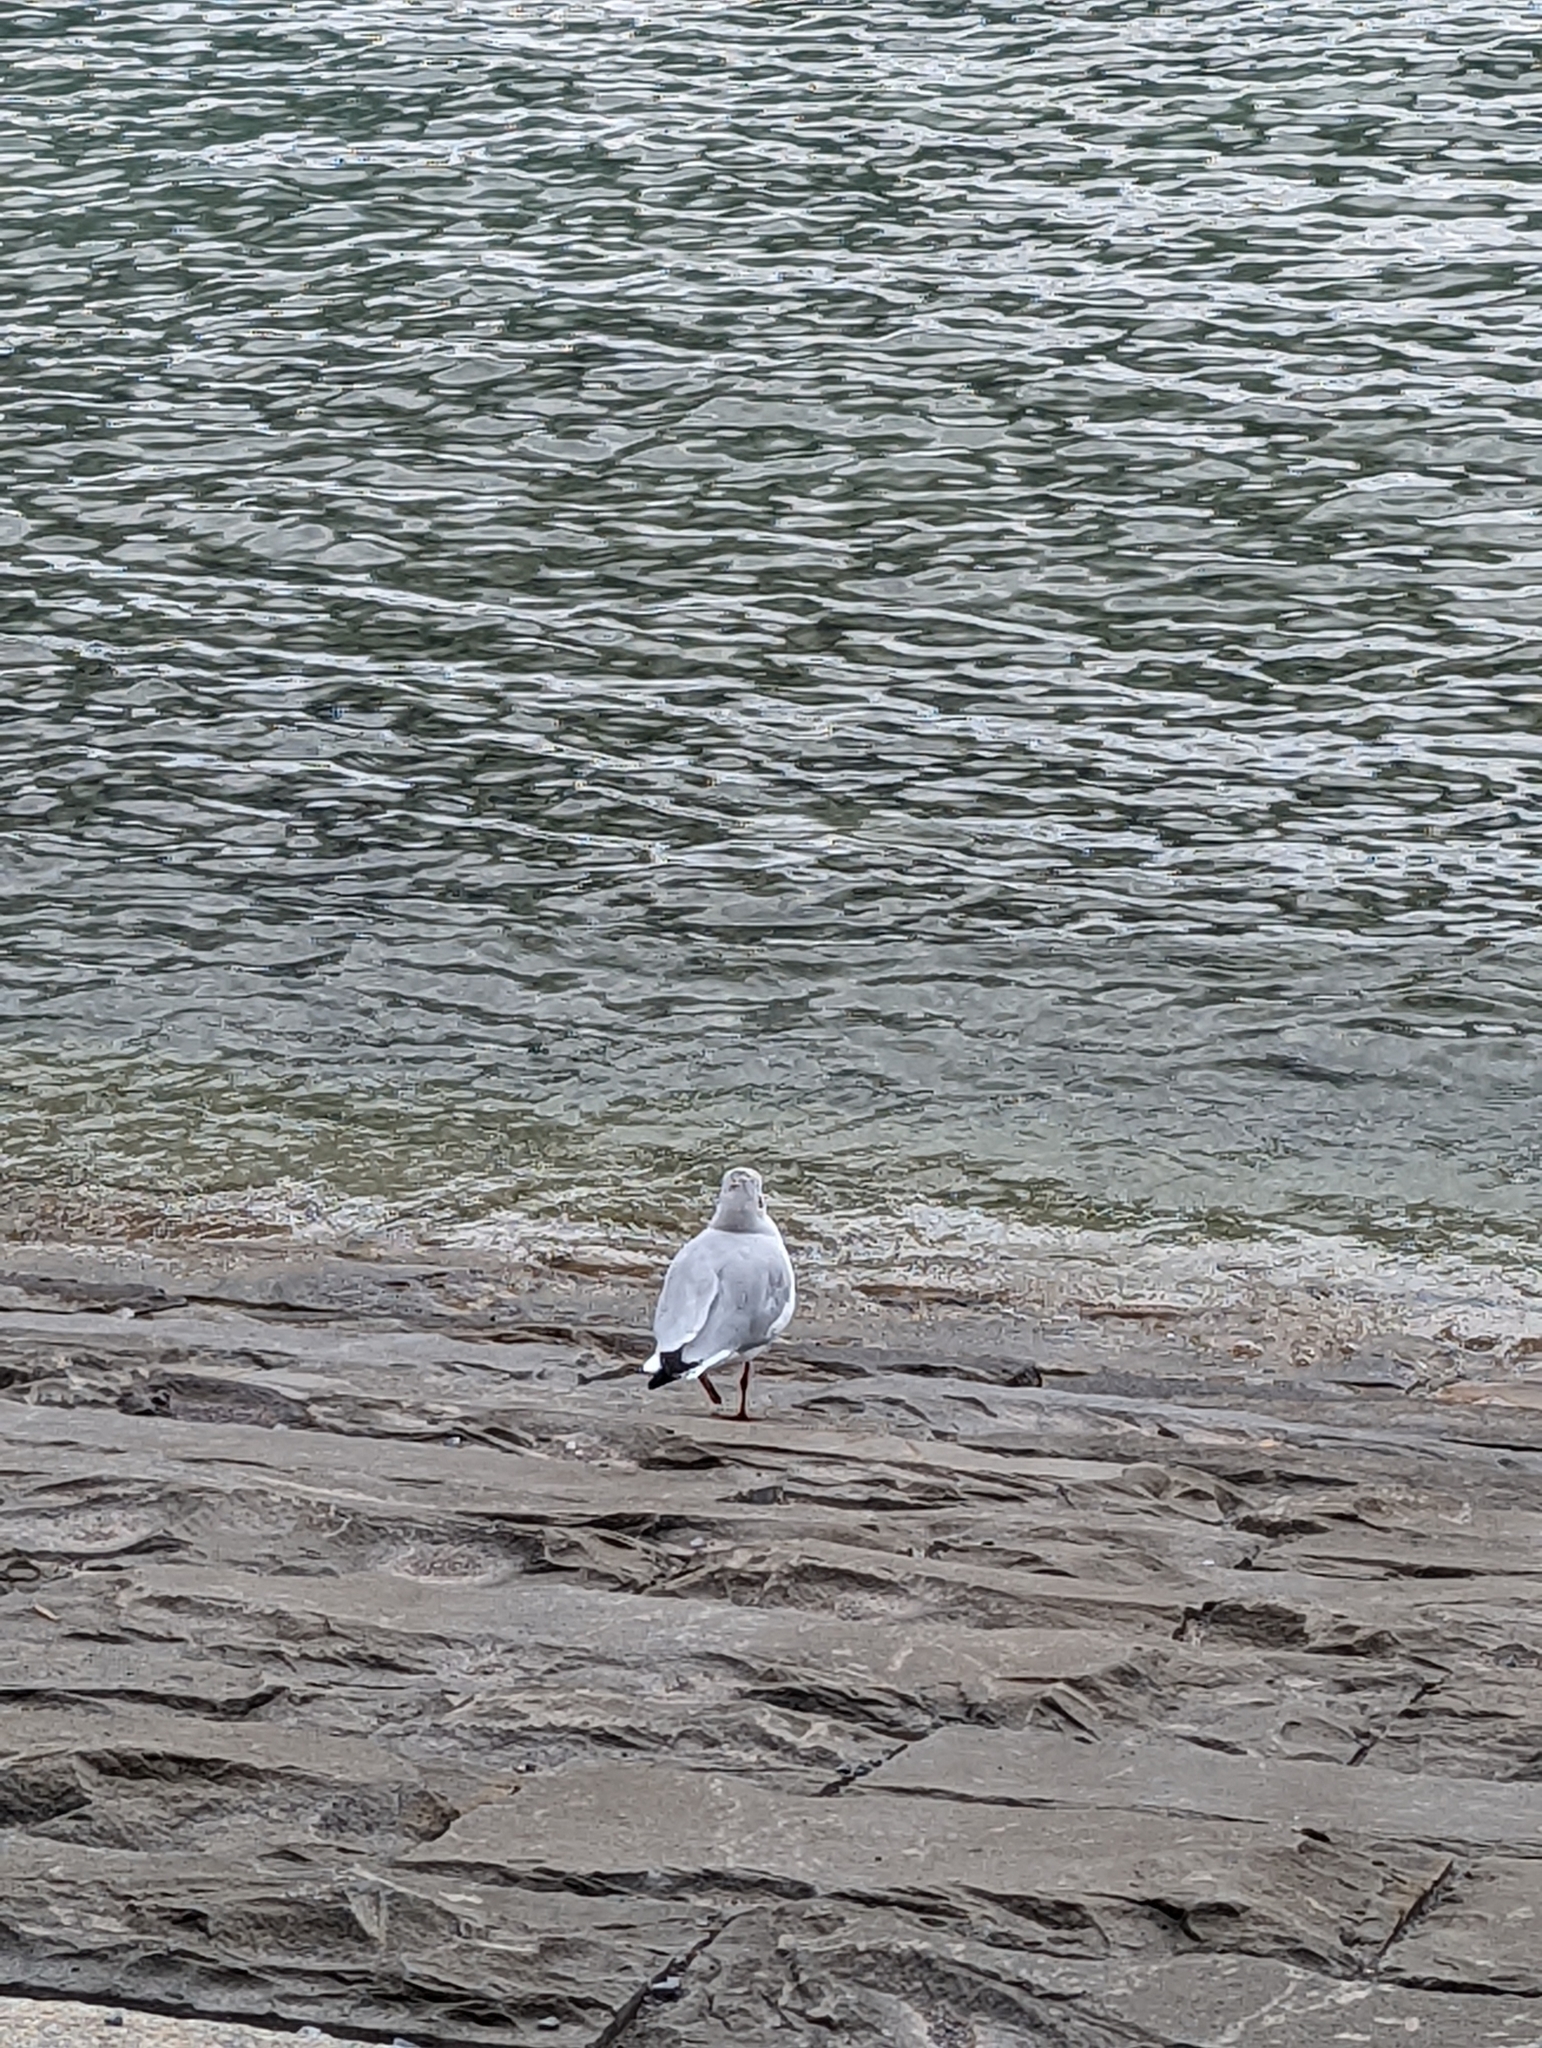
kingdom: Animalia
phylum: Chordata
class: Aves
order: Charadriiformes
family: Laridae
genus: Chroicocephalus
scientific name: Chroicocephalus ridibundus
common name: Black-headed gull
